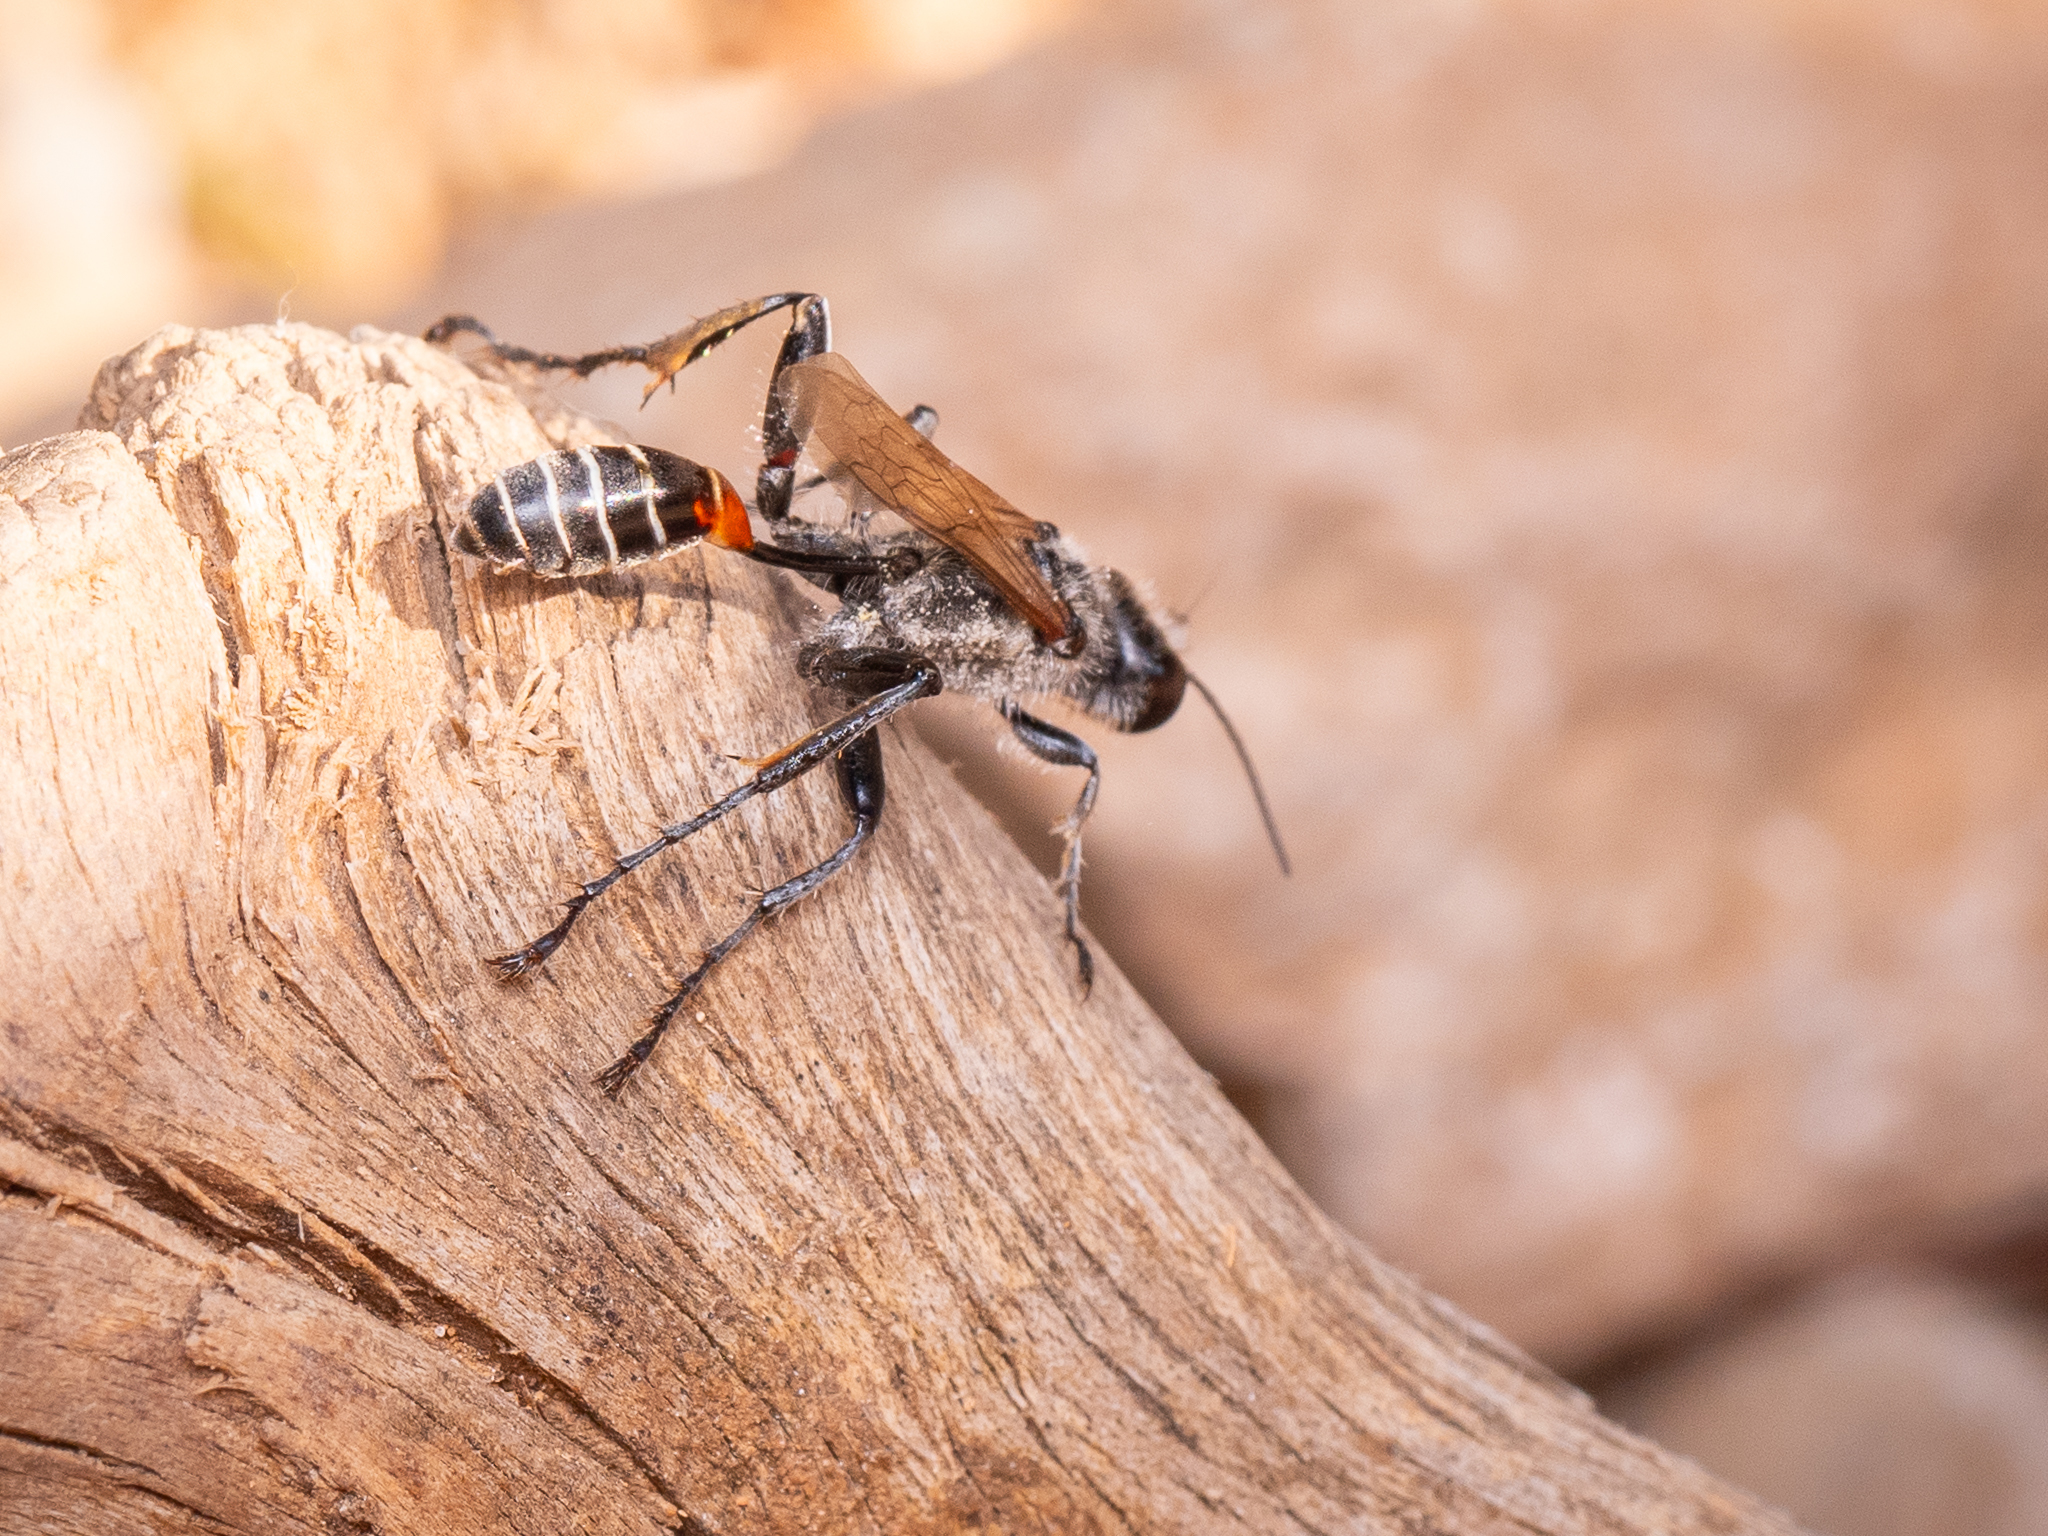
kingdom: Animalia
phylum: Arthropoda
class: Insecta
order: Hymenoptera
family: Sphecidae
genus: Prionyx
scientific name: Prionyx kirbii
